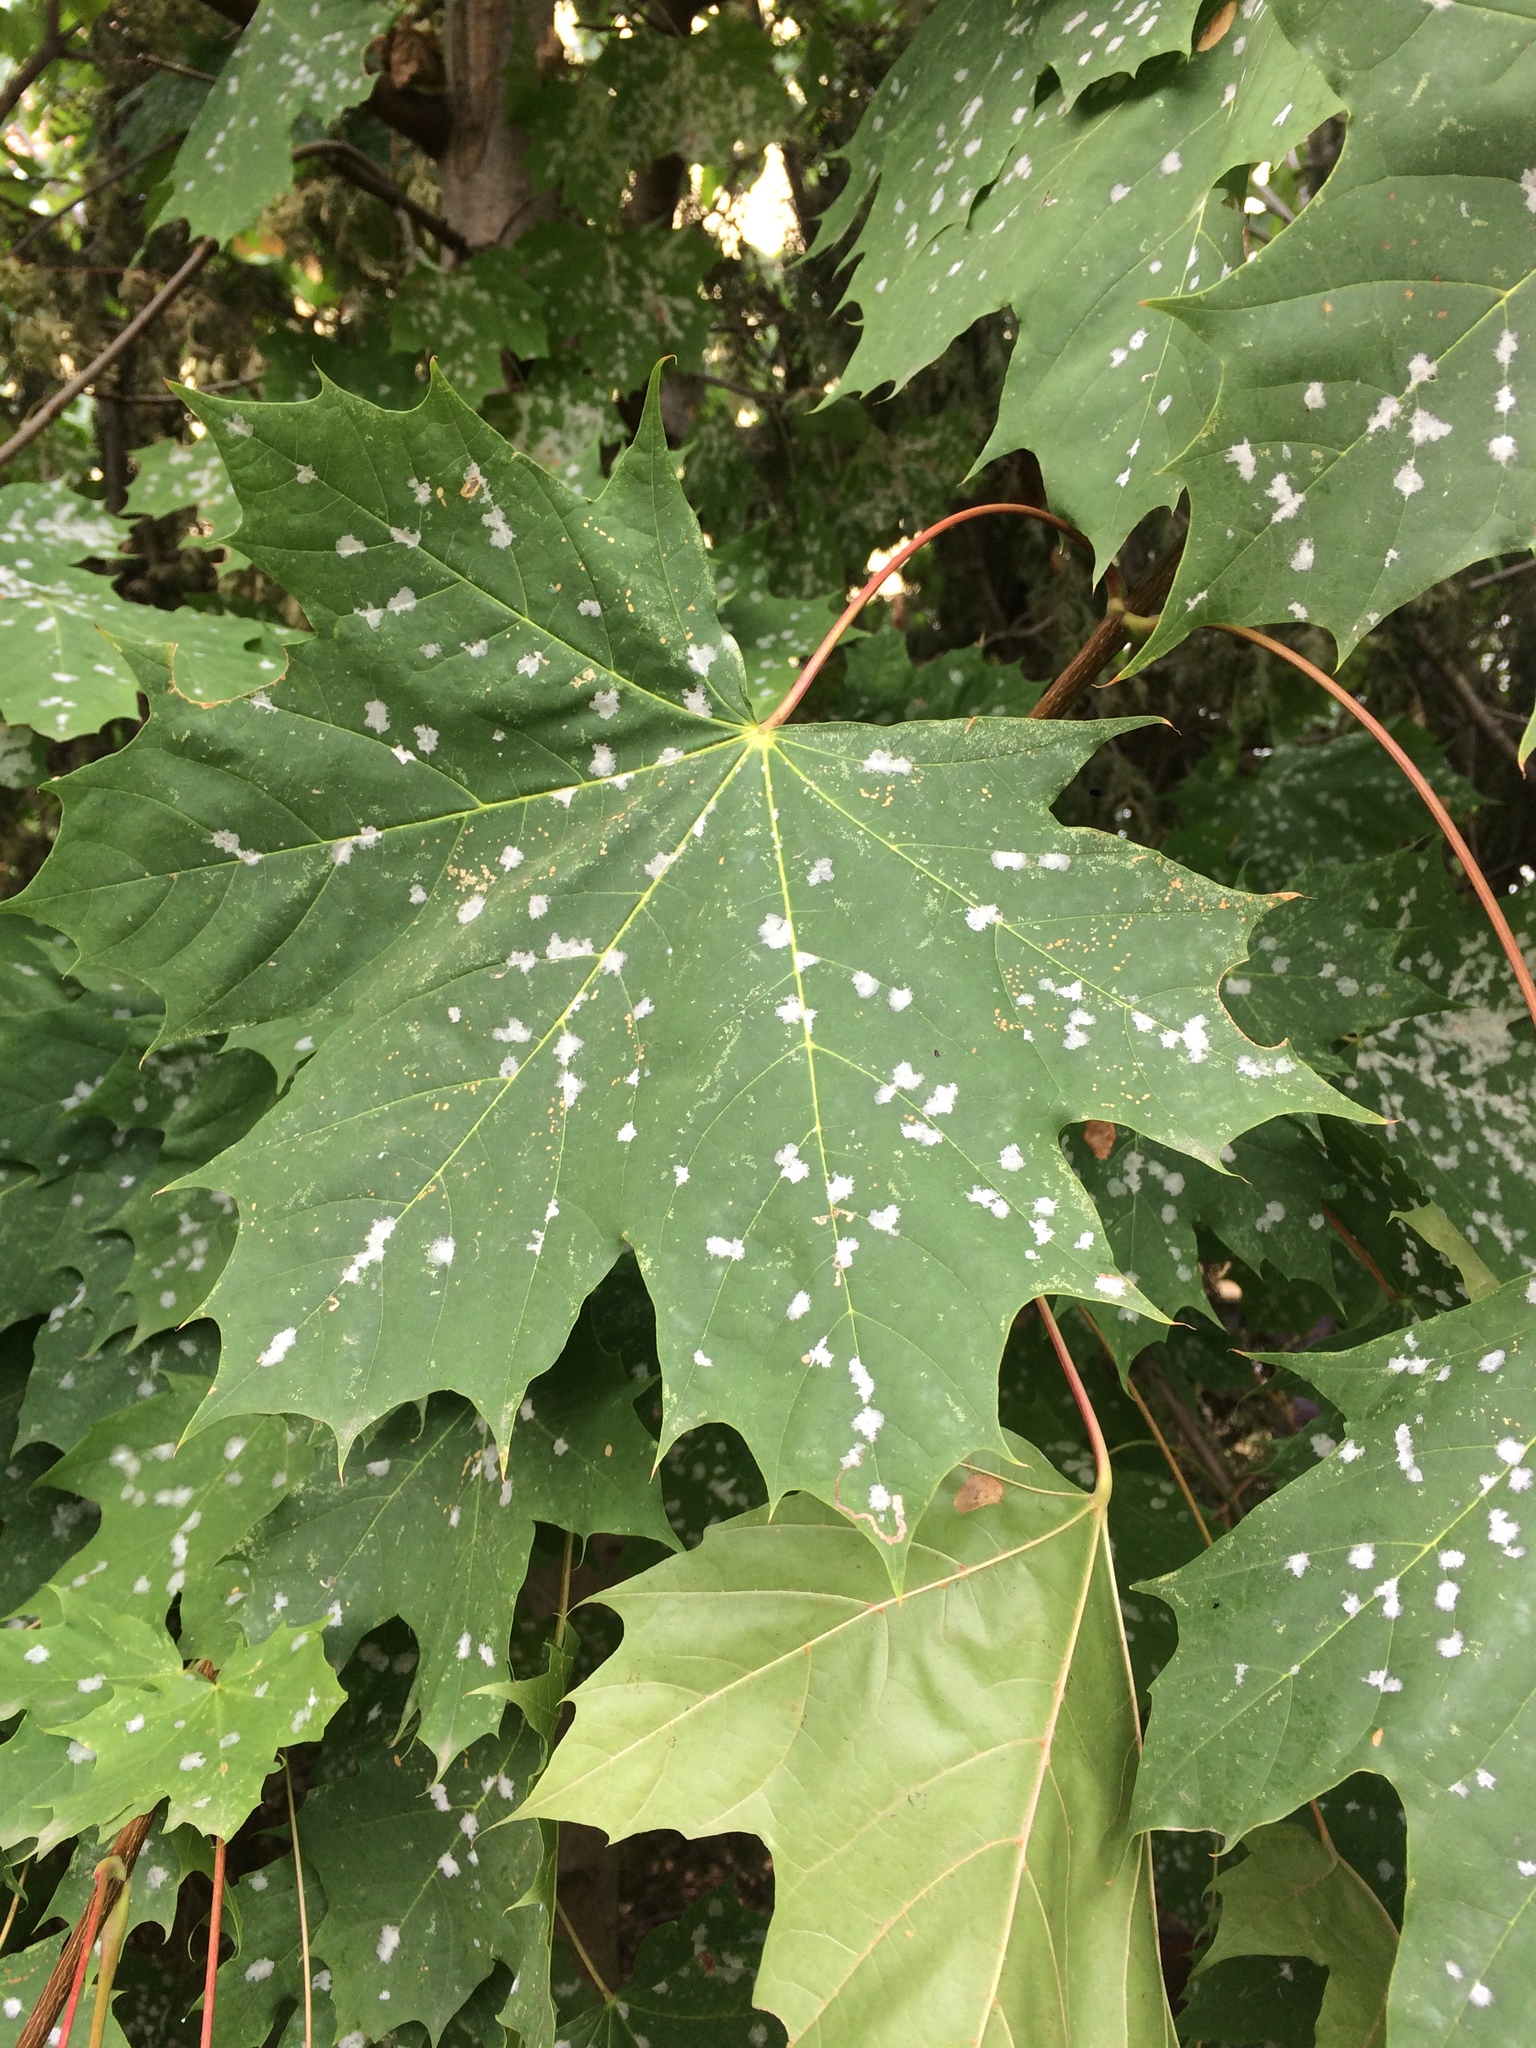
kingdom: Fungi
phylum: Ascomycota
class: Leotiomycetes
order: Helotiales
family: Erysiphaceae
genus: Sawadaea
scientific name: Sawadaea tulasnei
